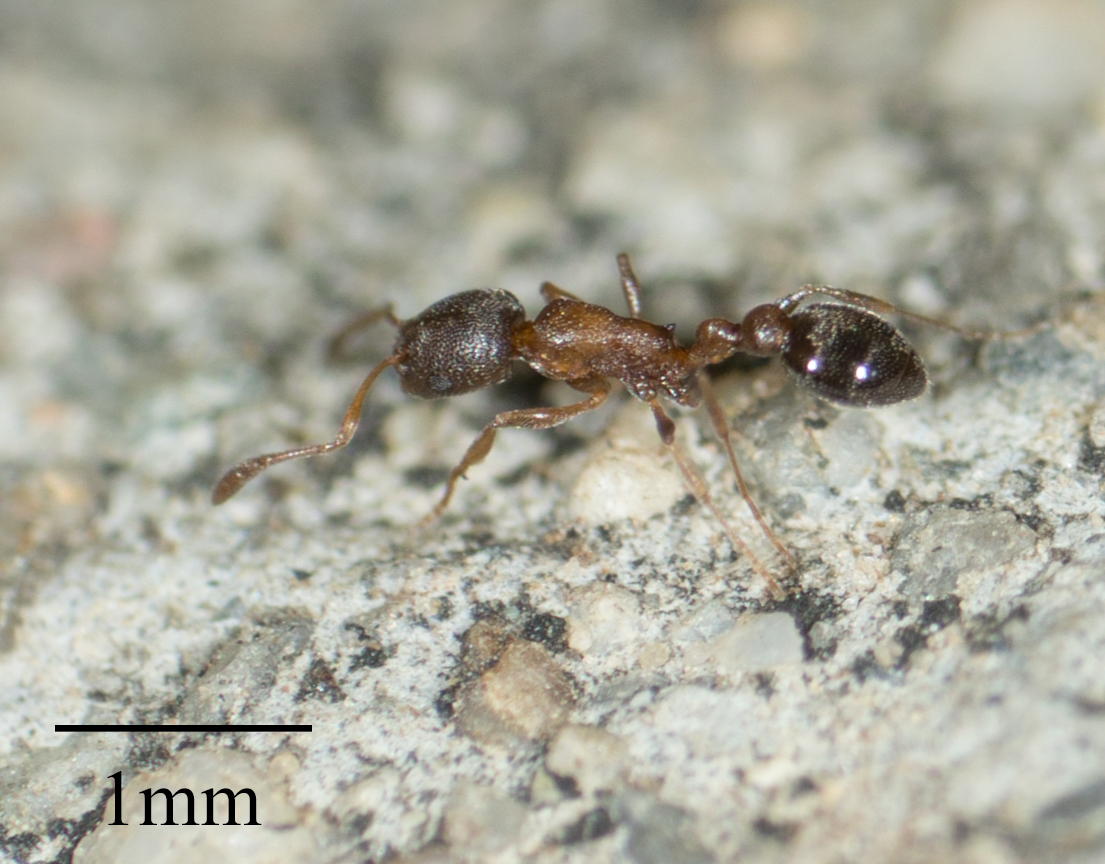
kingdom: Animalia
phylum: Arthropoda
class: Insecta
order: Hymenoptera
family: Formicidae
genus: Cardiocondyla
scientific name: Cardiocondyla mauritanica
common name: Sneaking ant
